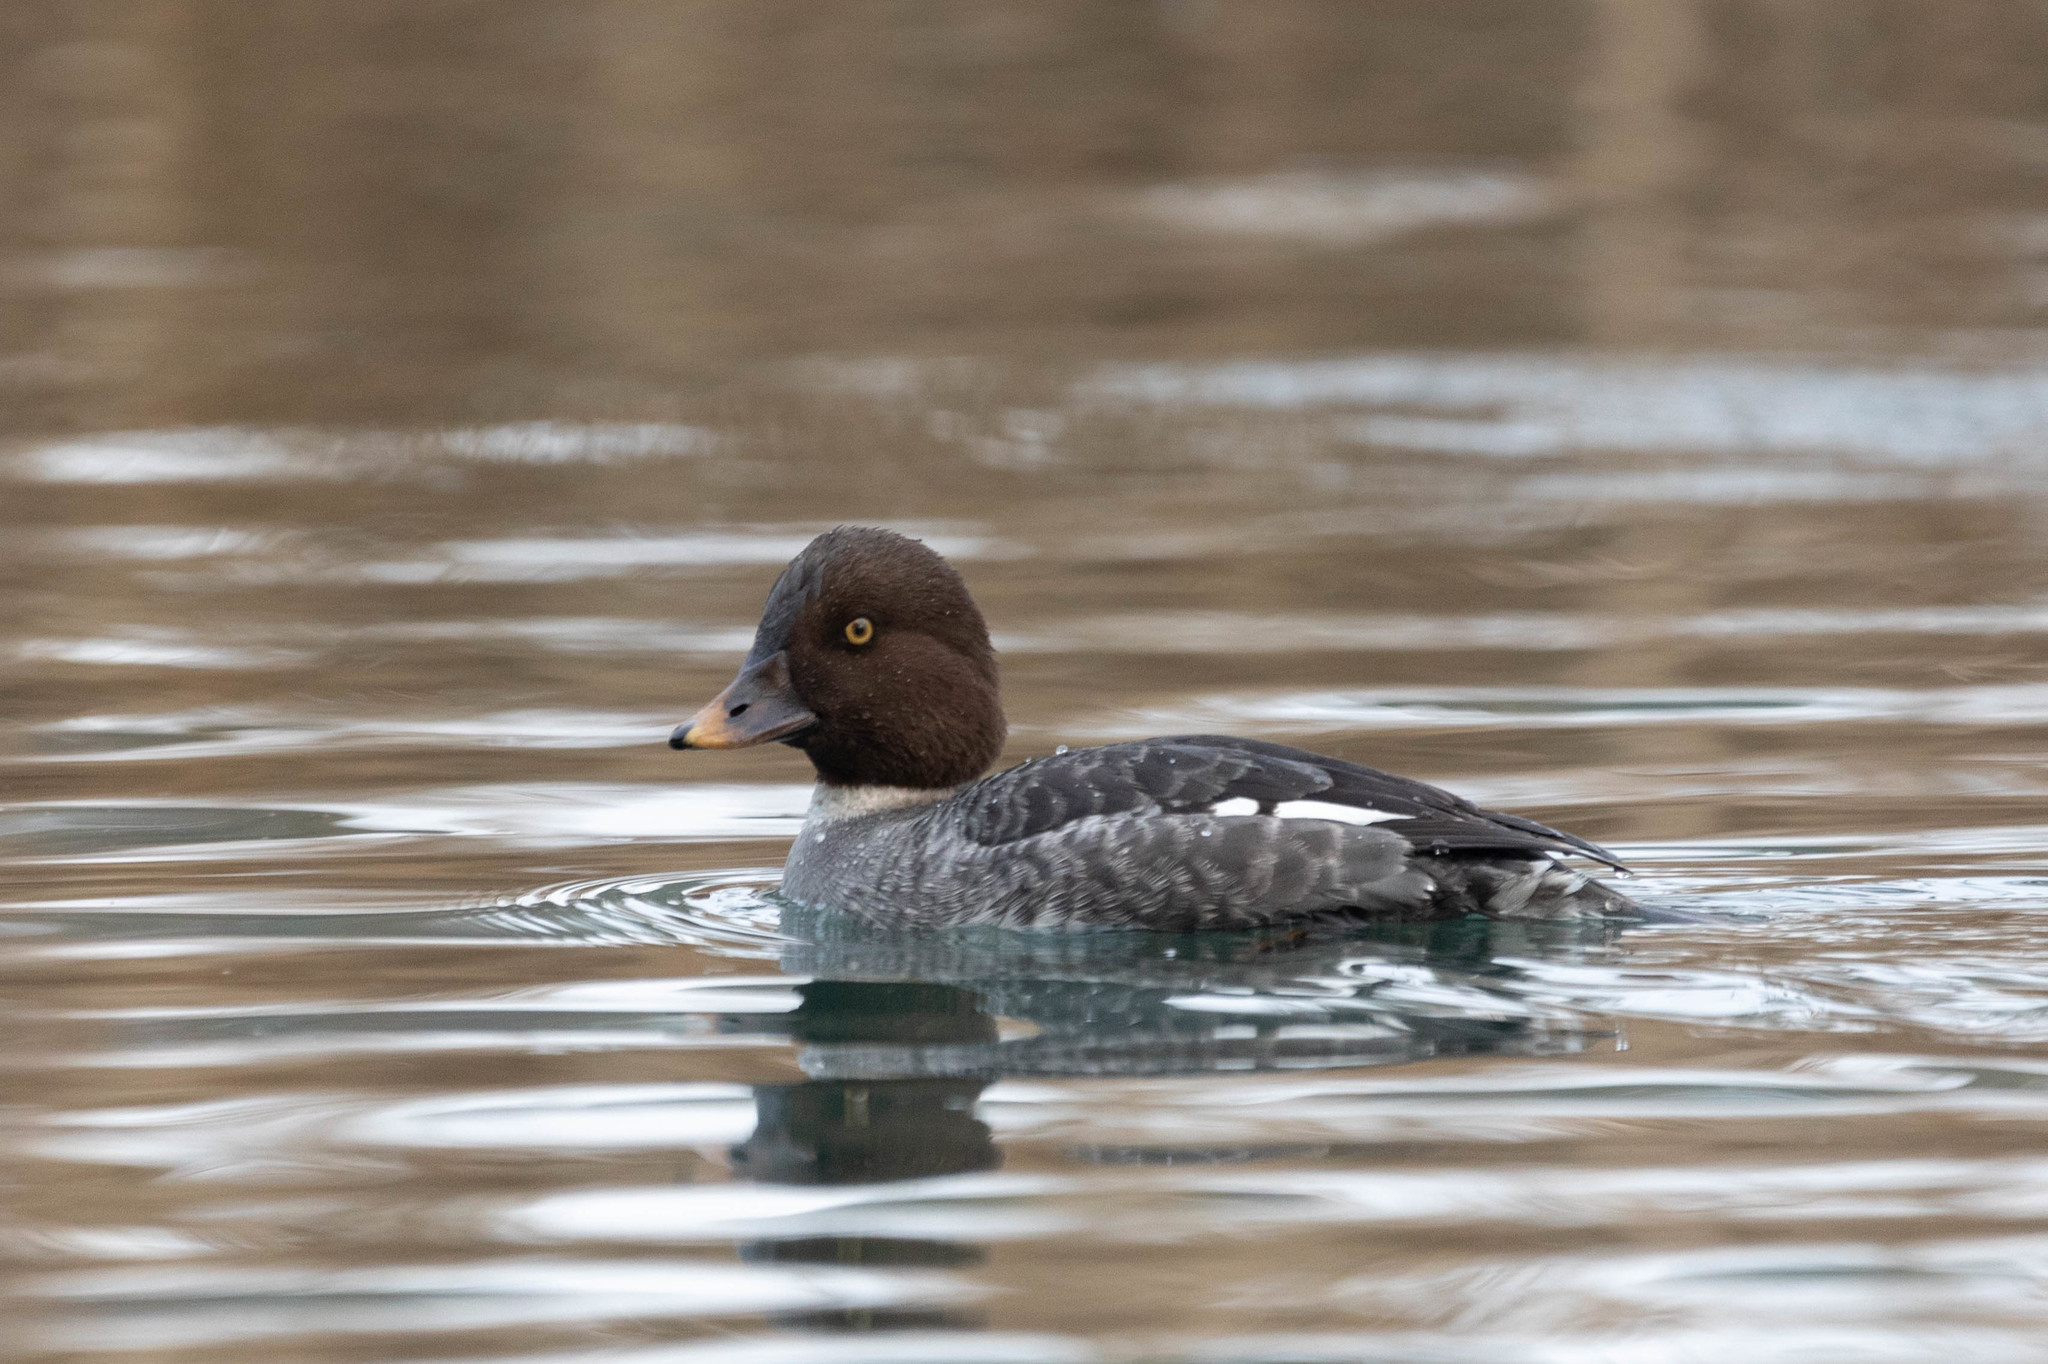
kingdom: Animalia
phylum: Chordata
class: Aves
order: Anseriformes
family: Anatidae
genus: Bucephala
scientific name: Bucephala clangula
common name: Common goldeneye
